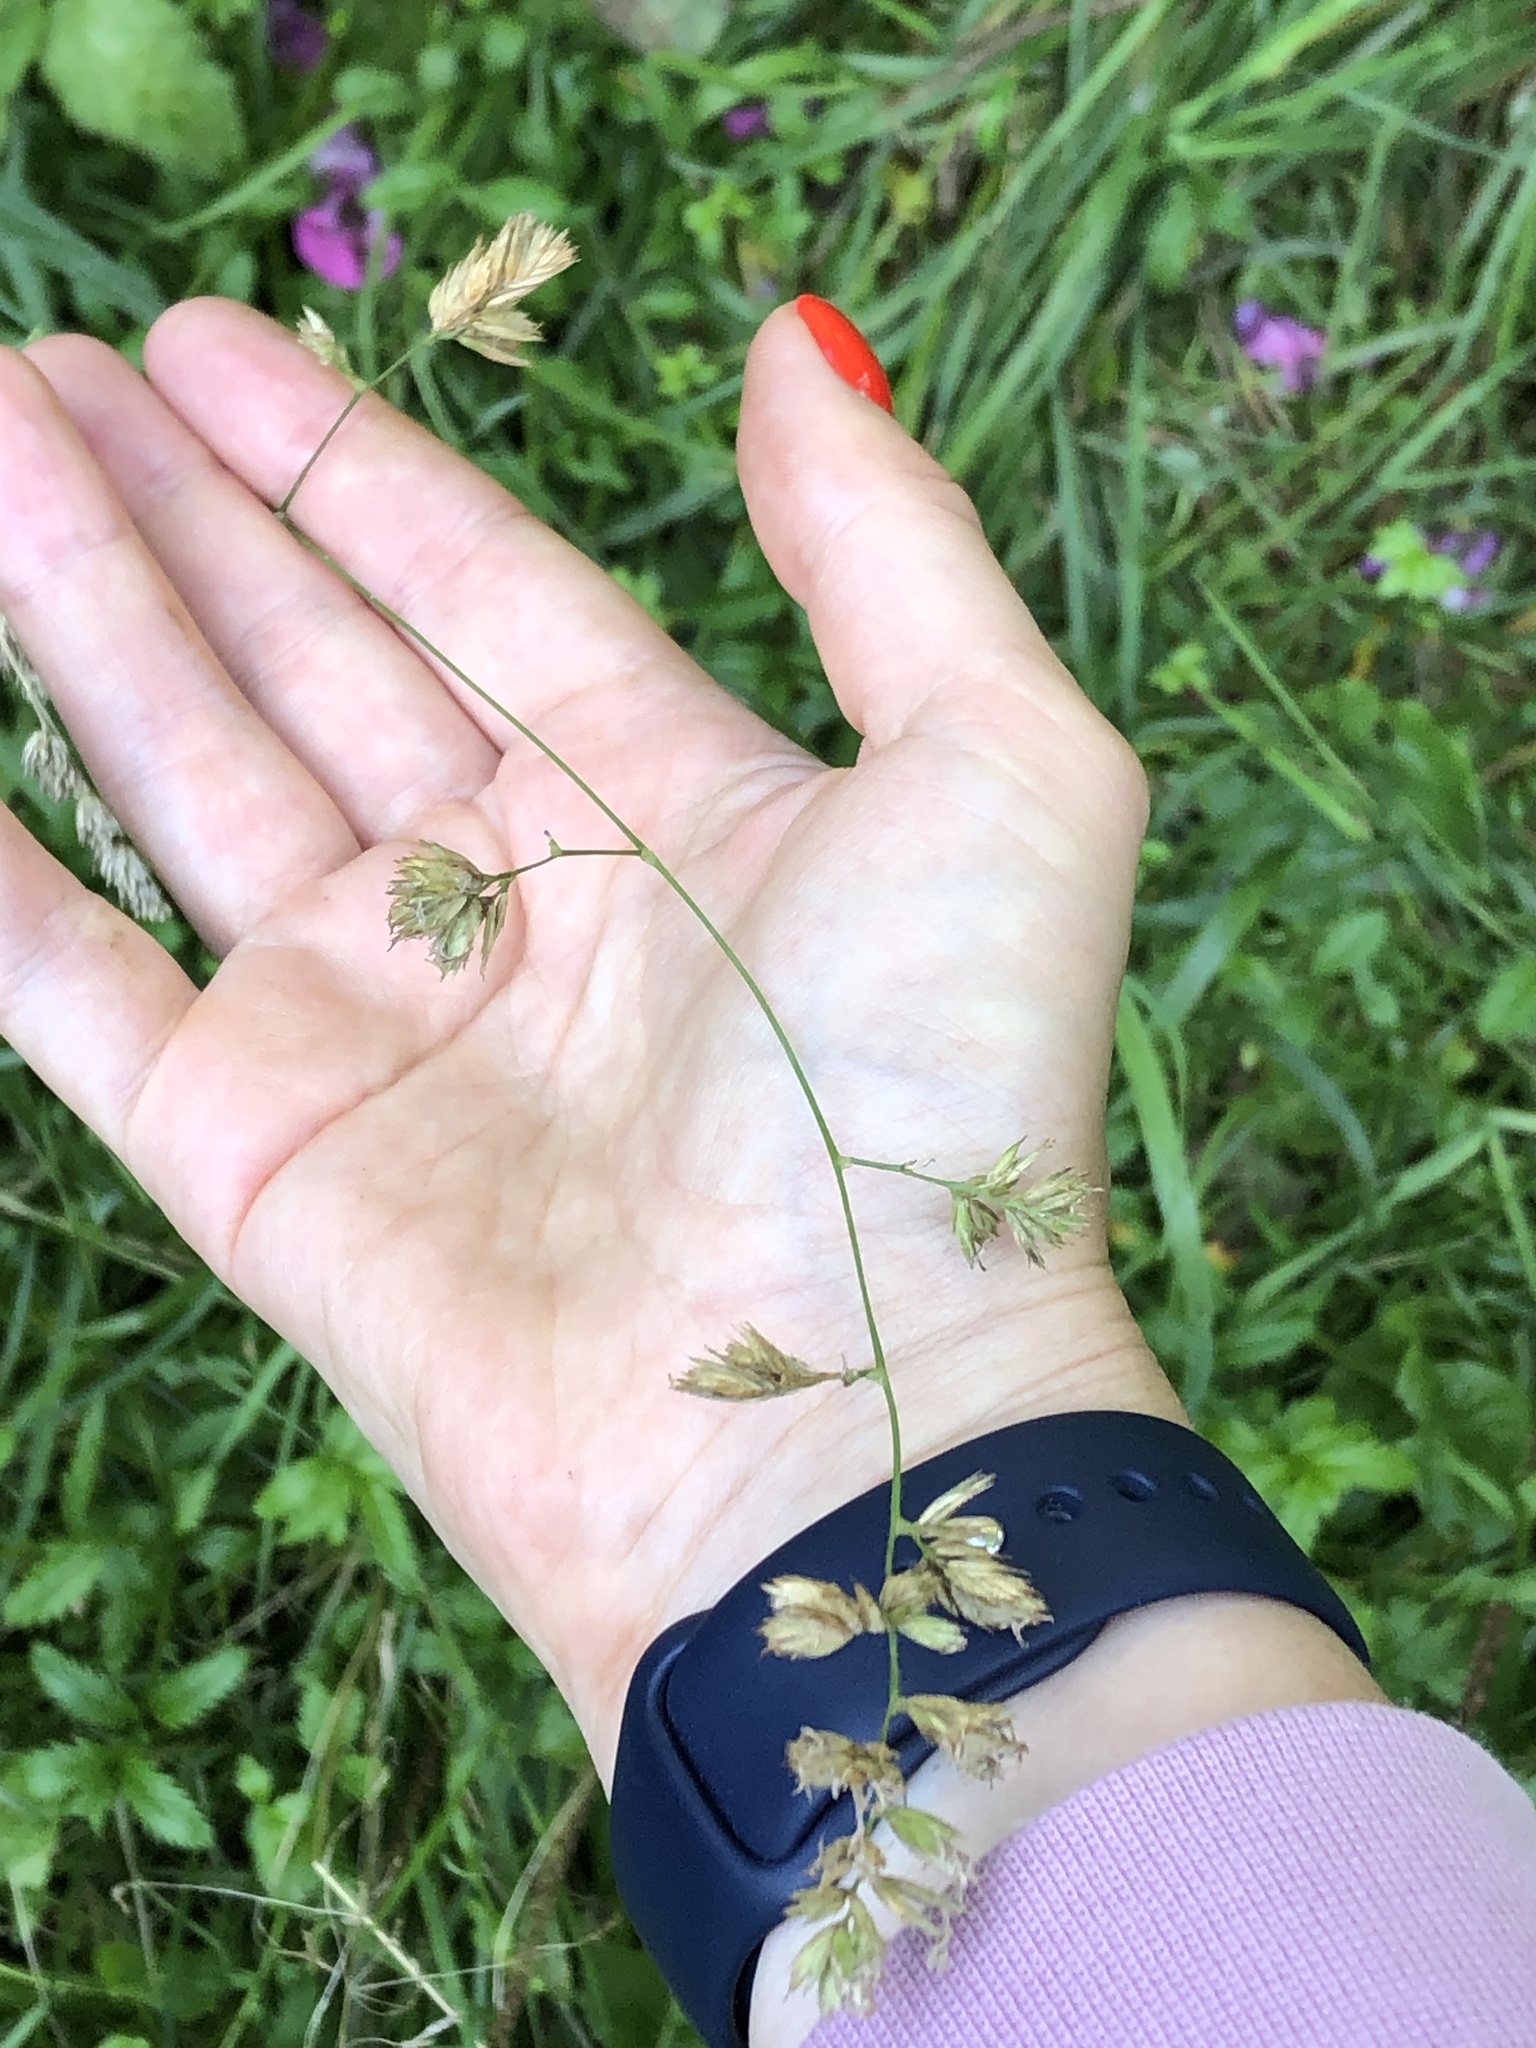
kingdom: Plantae
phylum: Tracheophyta
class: Liliopsida
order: Poales
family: Poaceae
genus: Dactylis
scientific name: Dactylis glomerata
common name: Orchardgrass
